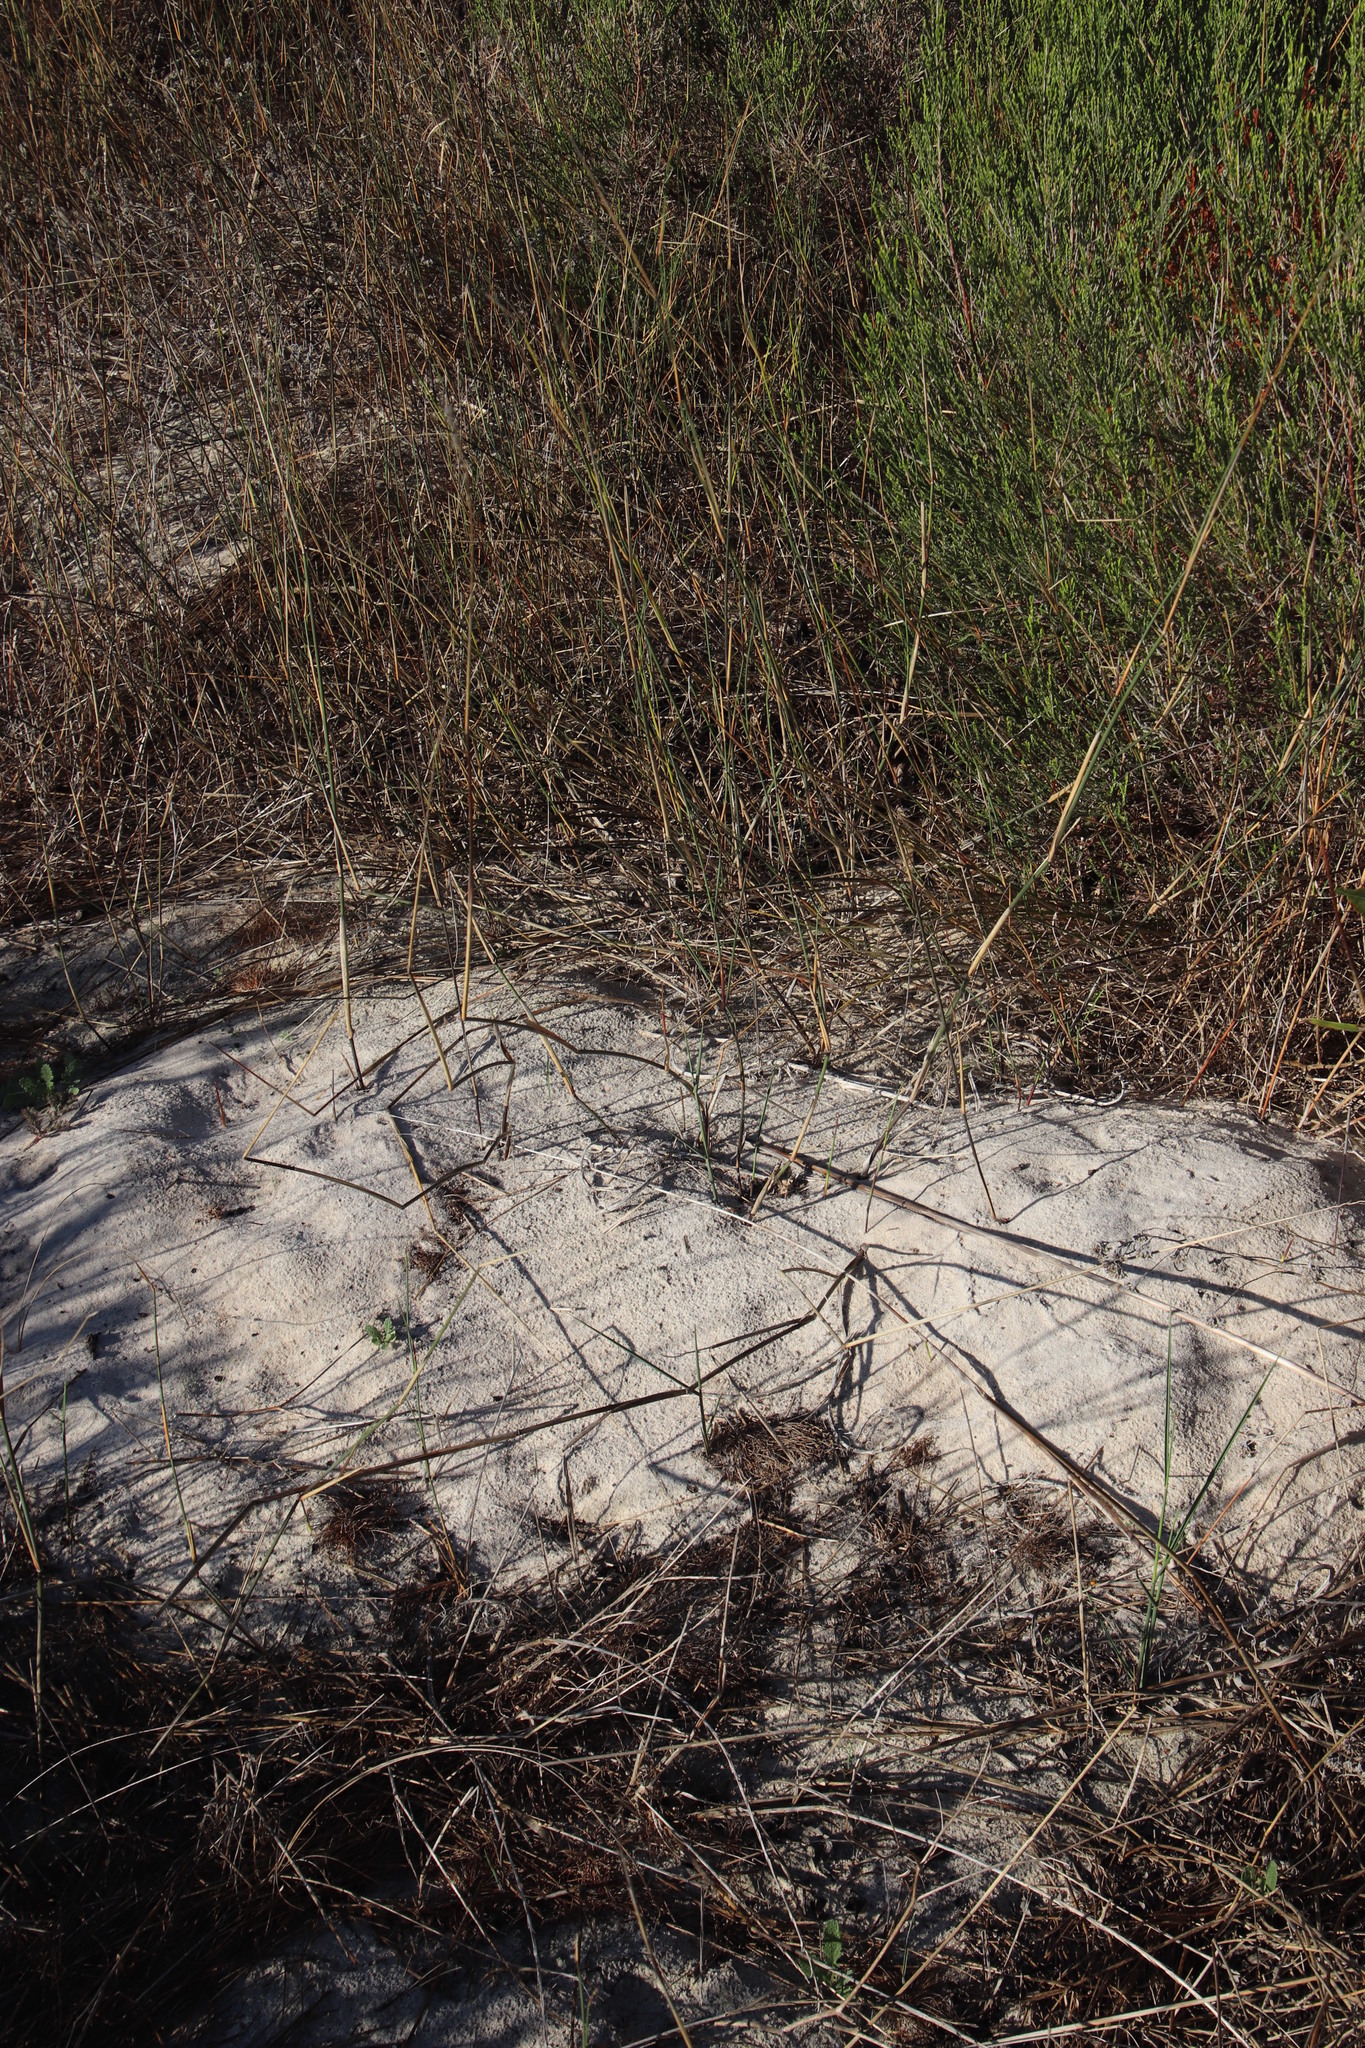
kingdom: Plantae
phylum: Tracheophyta
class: Liliopsida
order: Poales
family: Poaceae
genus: Ehrharta
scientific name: Ehrharta villosa
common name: Pyp grass
